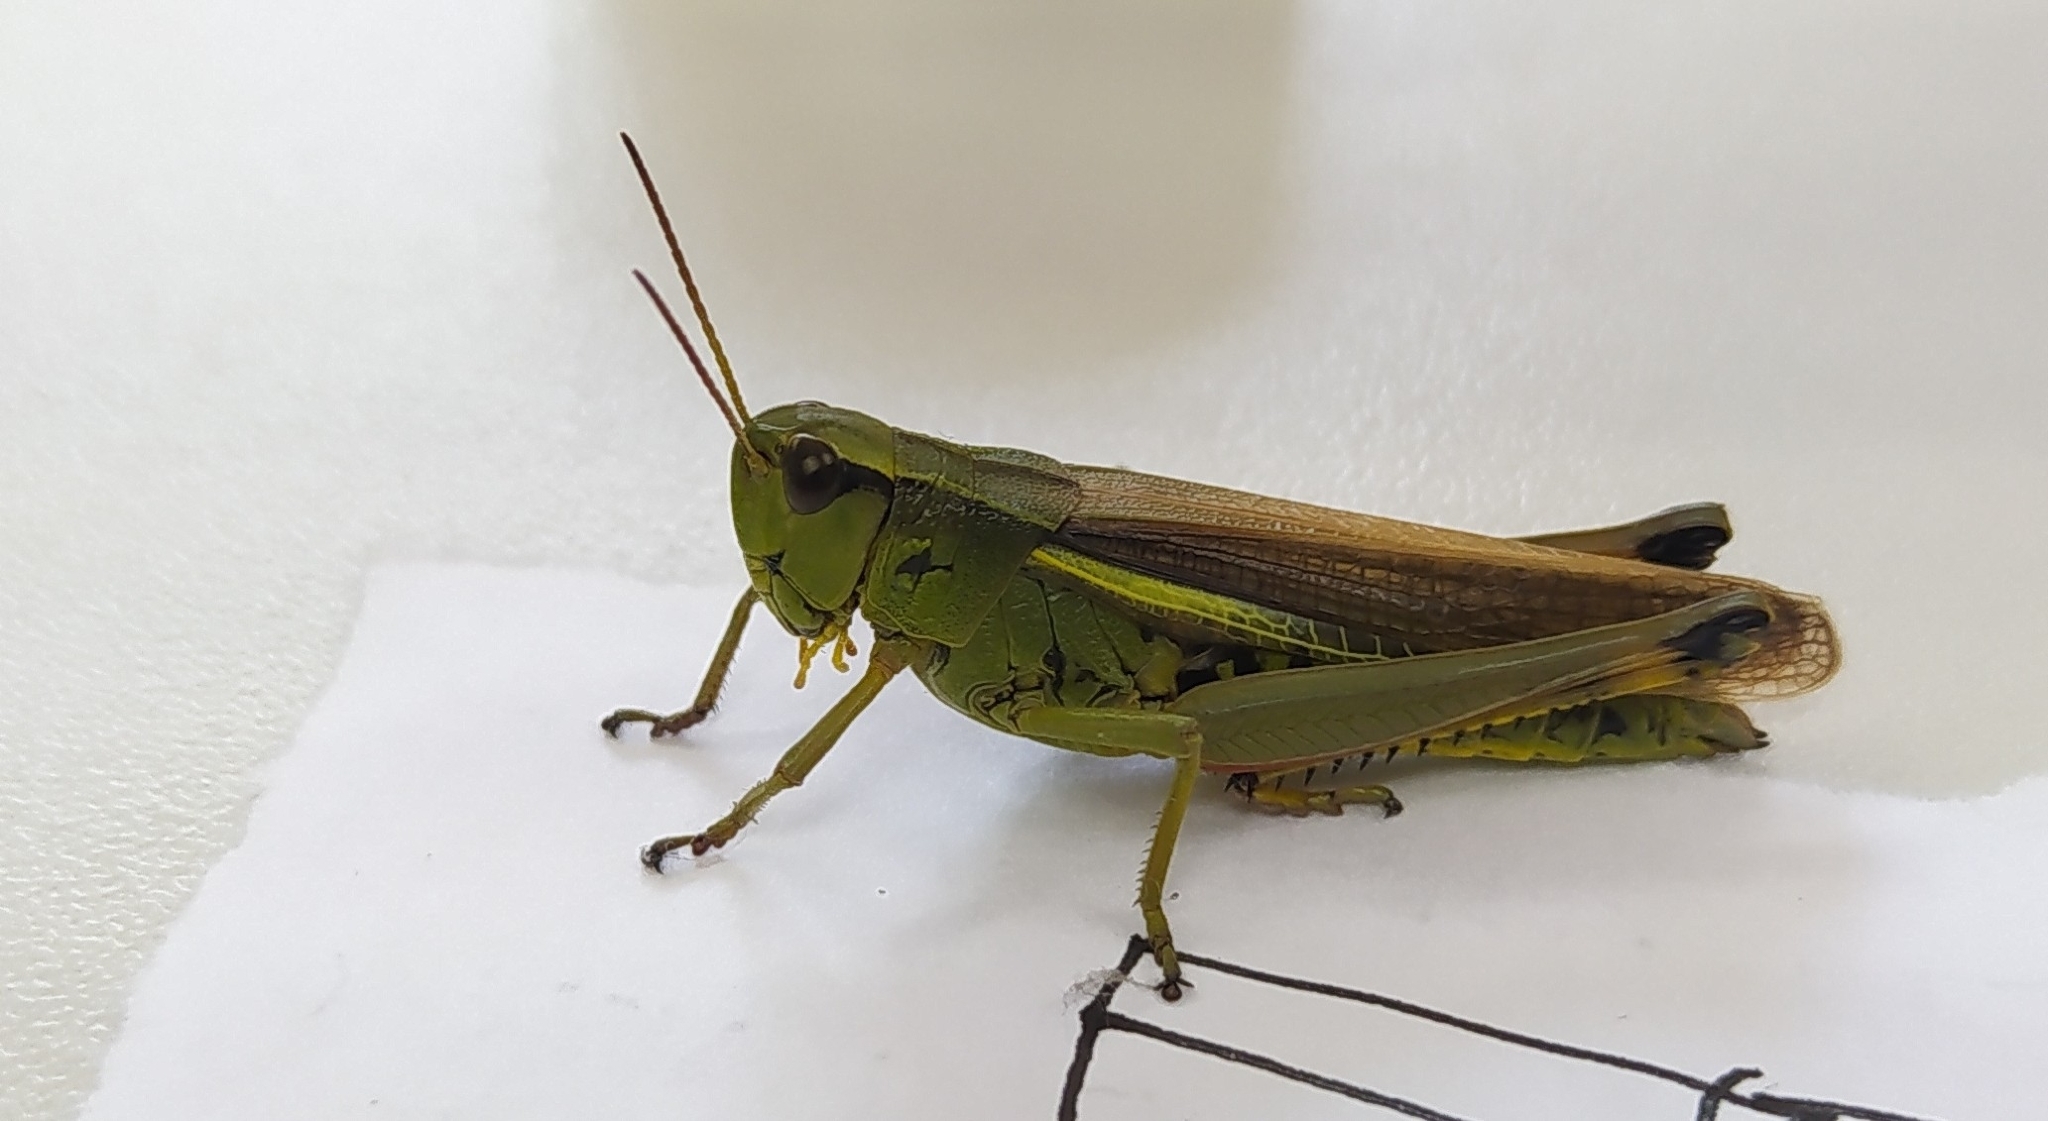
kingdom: Animalia
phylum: Arthropoda
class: Insecta
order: Orthoptera
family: Acrididae
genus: Stethophyma
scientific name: Stethophyma grossum
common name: Large marsh grasshopper
